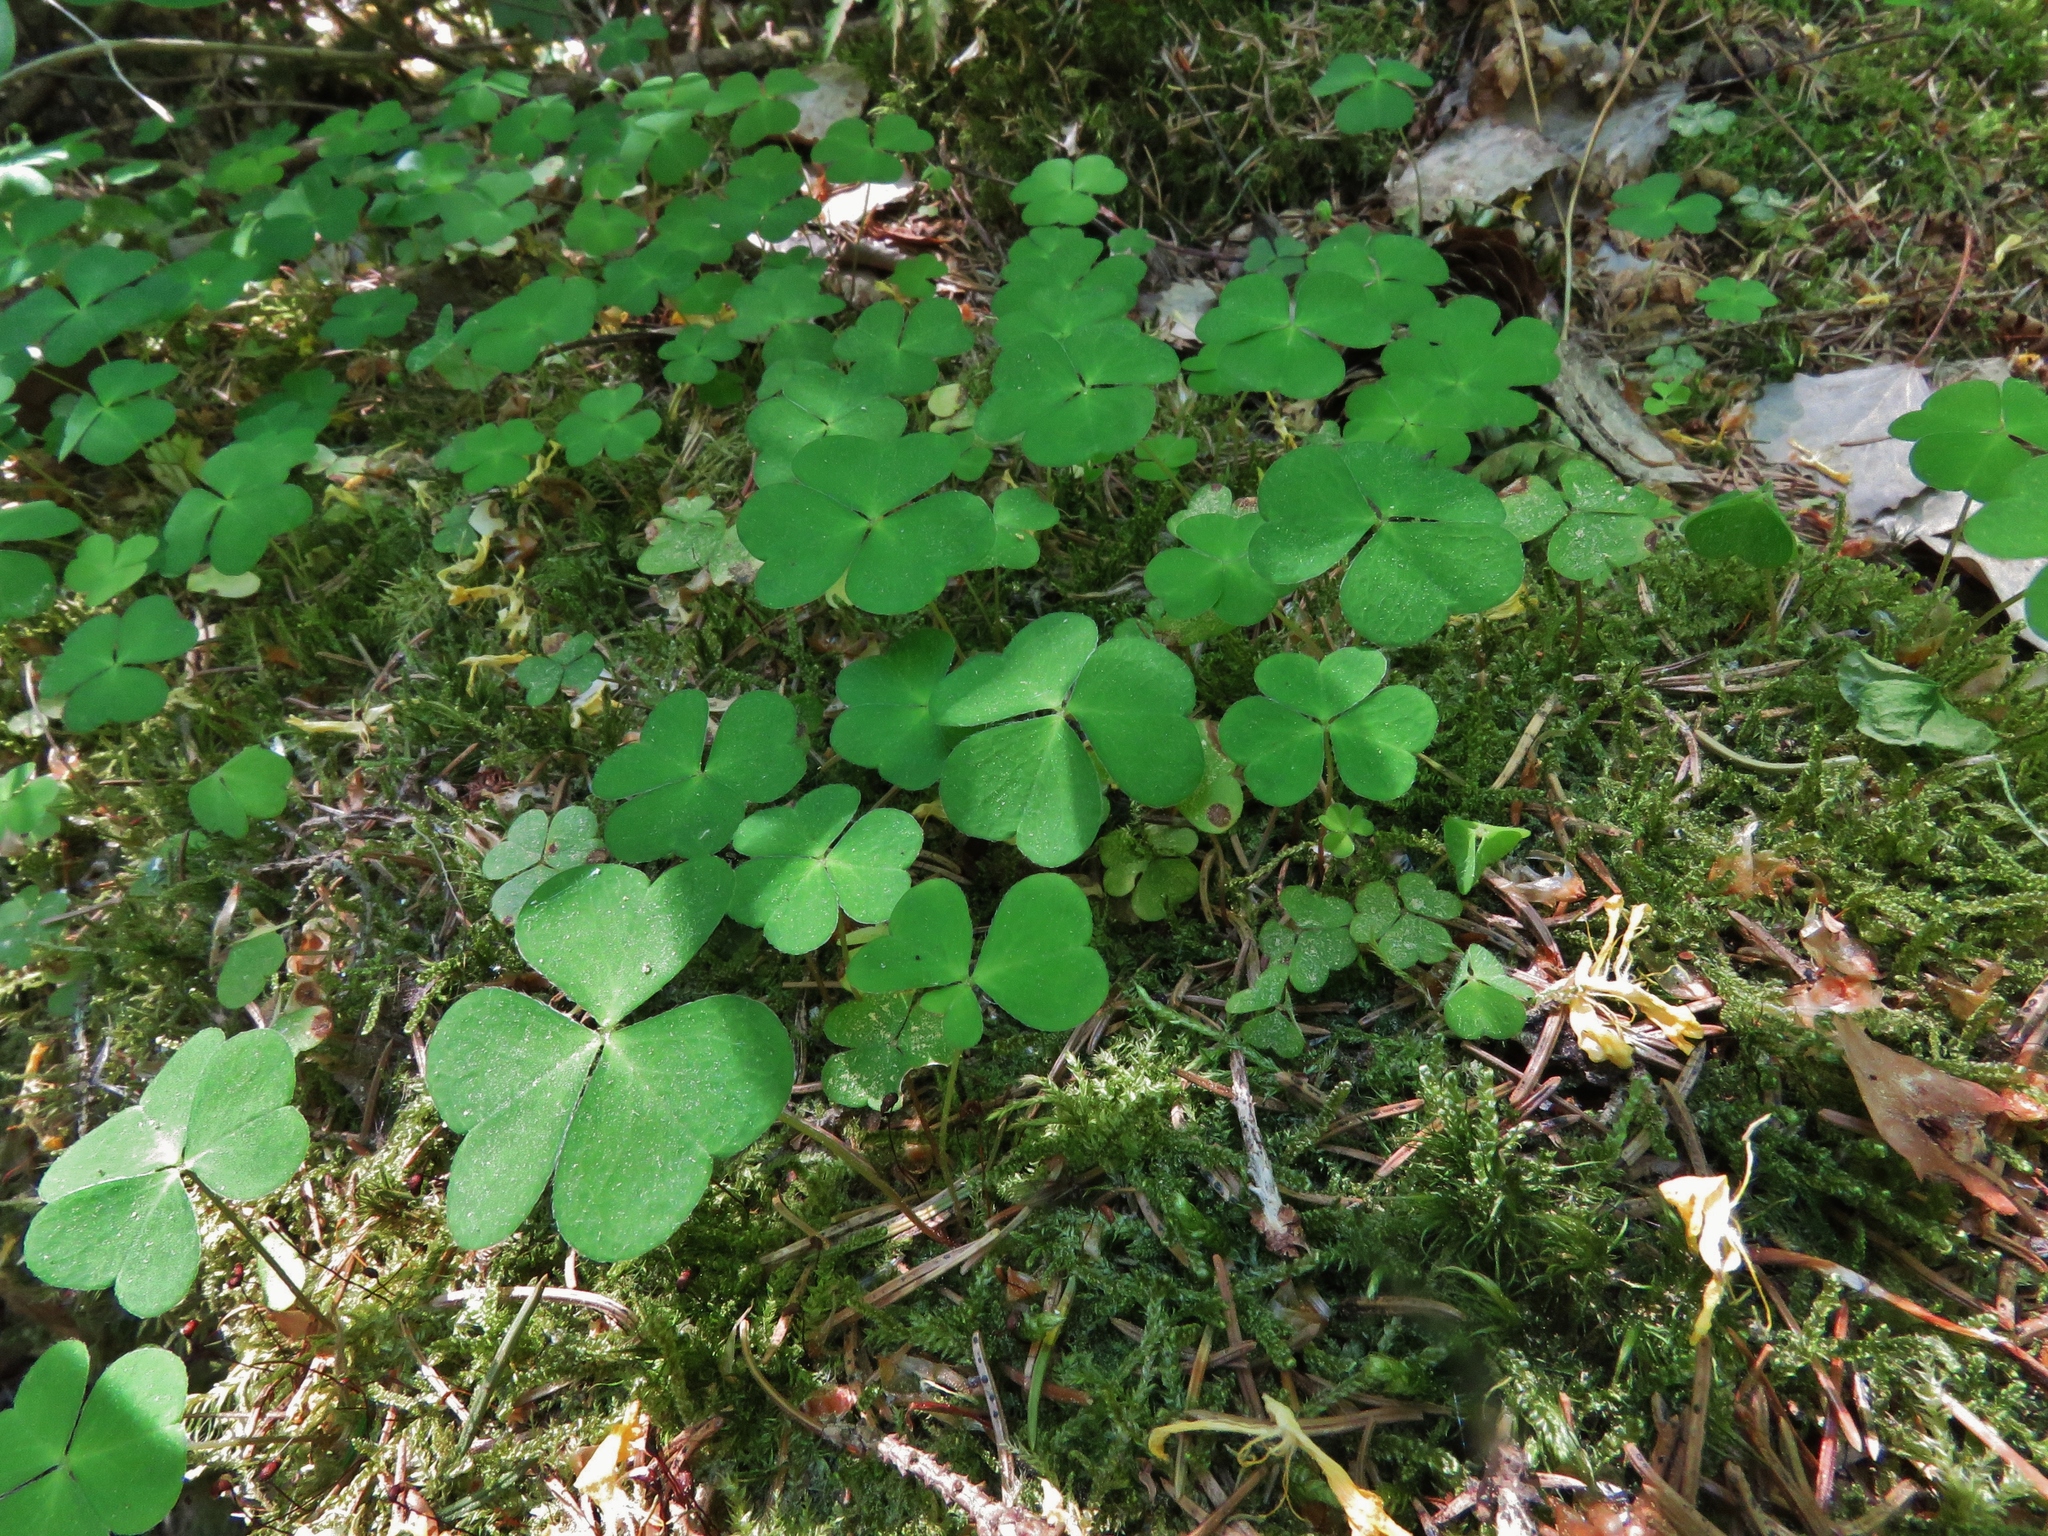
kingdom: Plantae
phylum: Tracheophyta
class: Magnoliopsida
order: Oxalidales
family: Oxalidaceae
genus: Oxalis
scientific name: Oxalis acetosella
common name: Wood-sorrel
